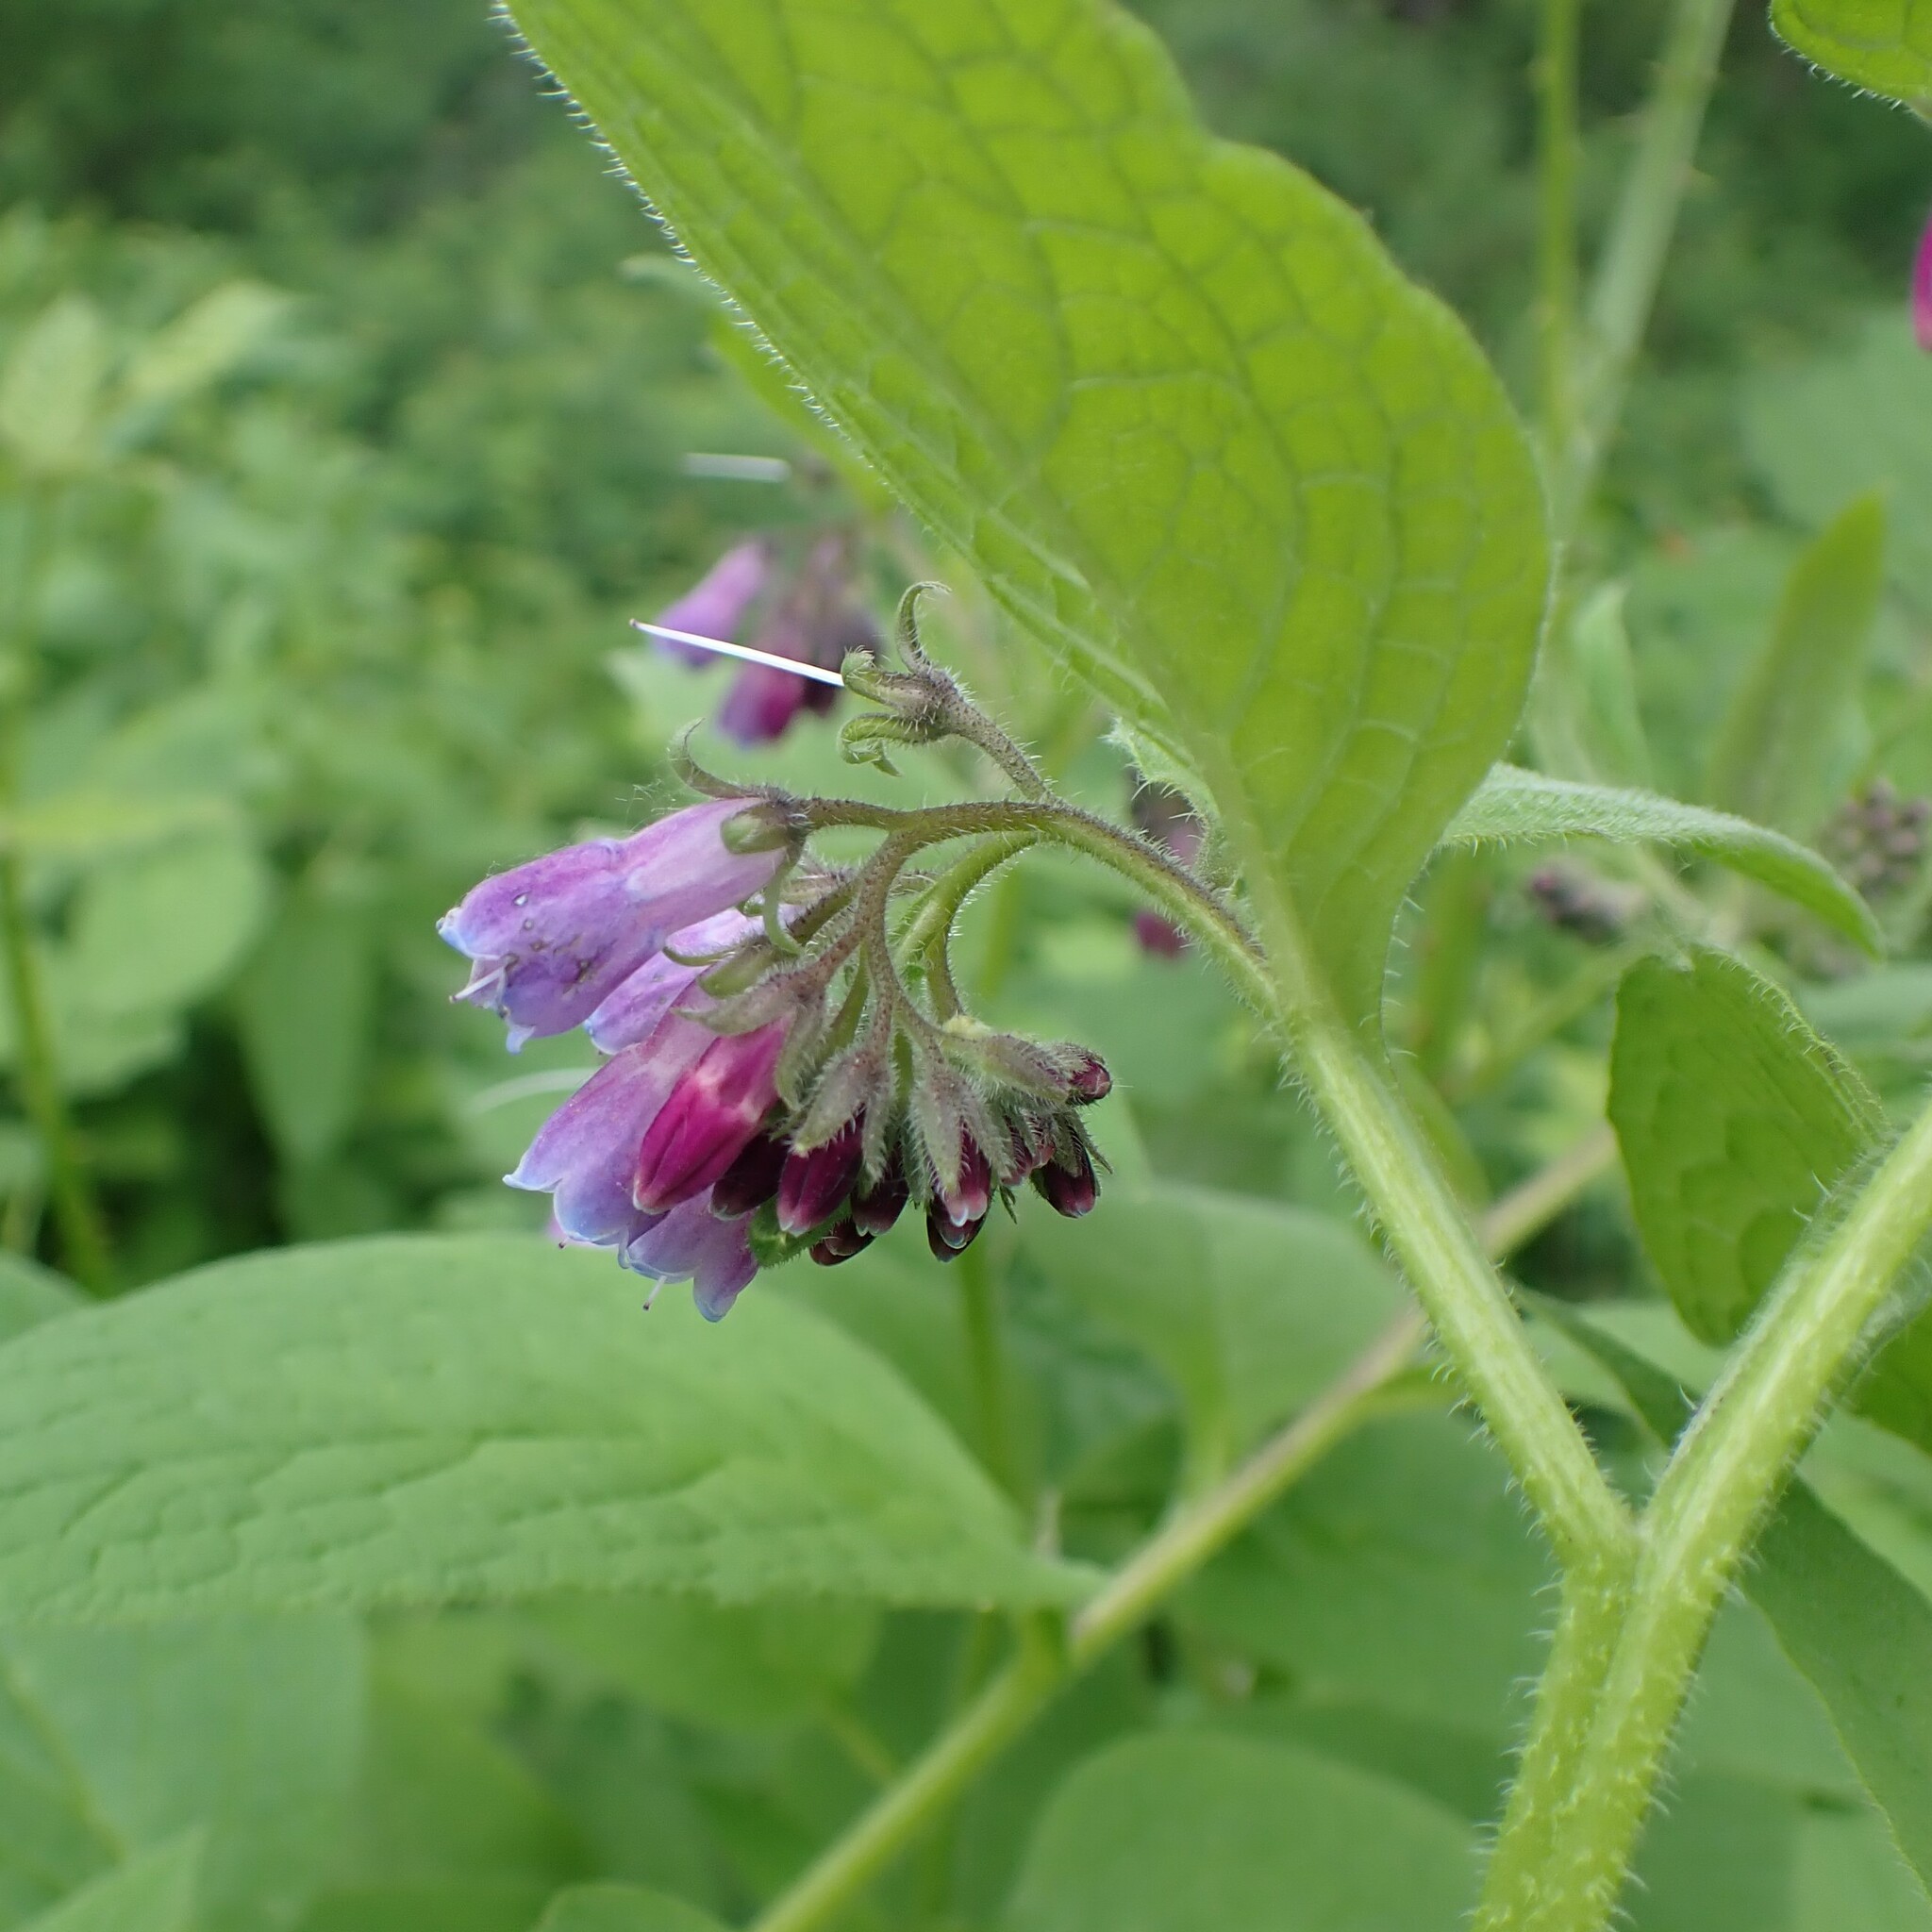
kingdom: Plantae
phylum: Tracheophyta
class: Magnoliopsida
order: Boraginales
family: Boraginaceae
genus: Symphytum
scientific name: Symphytum officinale
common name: Common comfrey
